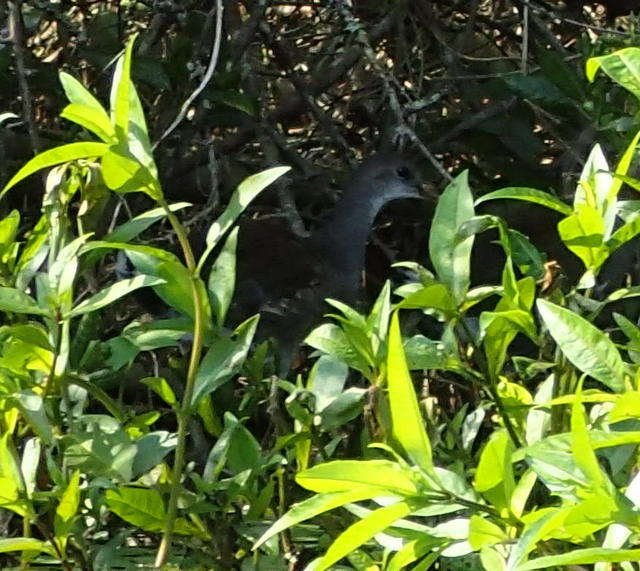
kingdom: Animalia
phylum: Chordata
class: Aves
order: Gruiformes
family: Rallidae
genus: Gallinula
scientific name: Gallinula chloropus
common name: Common moorhen
